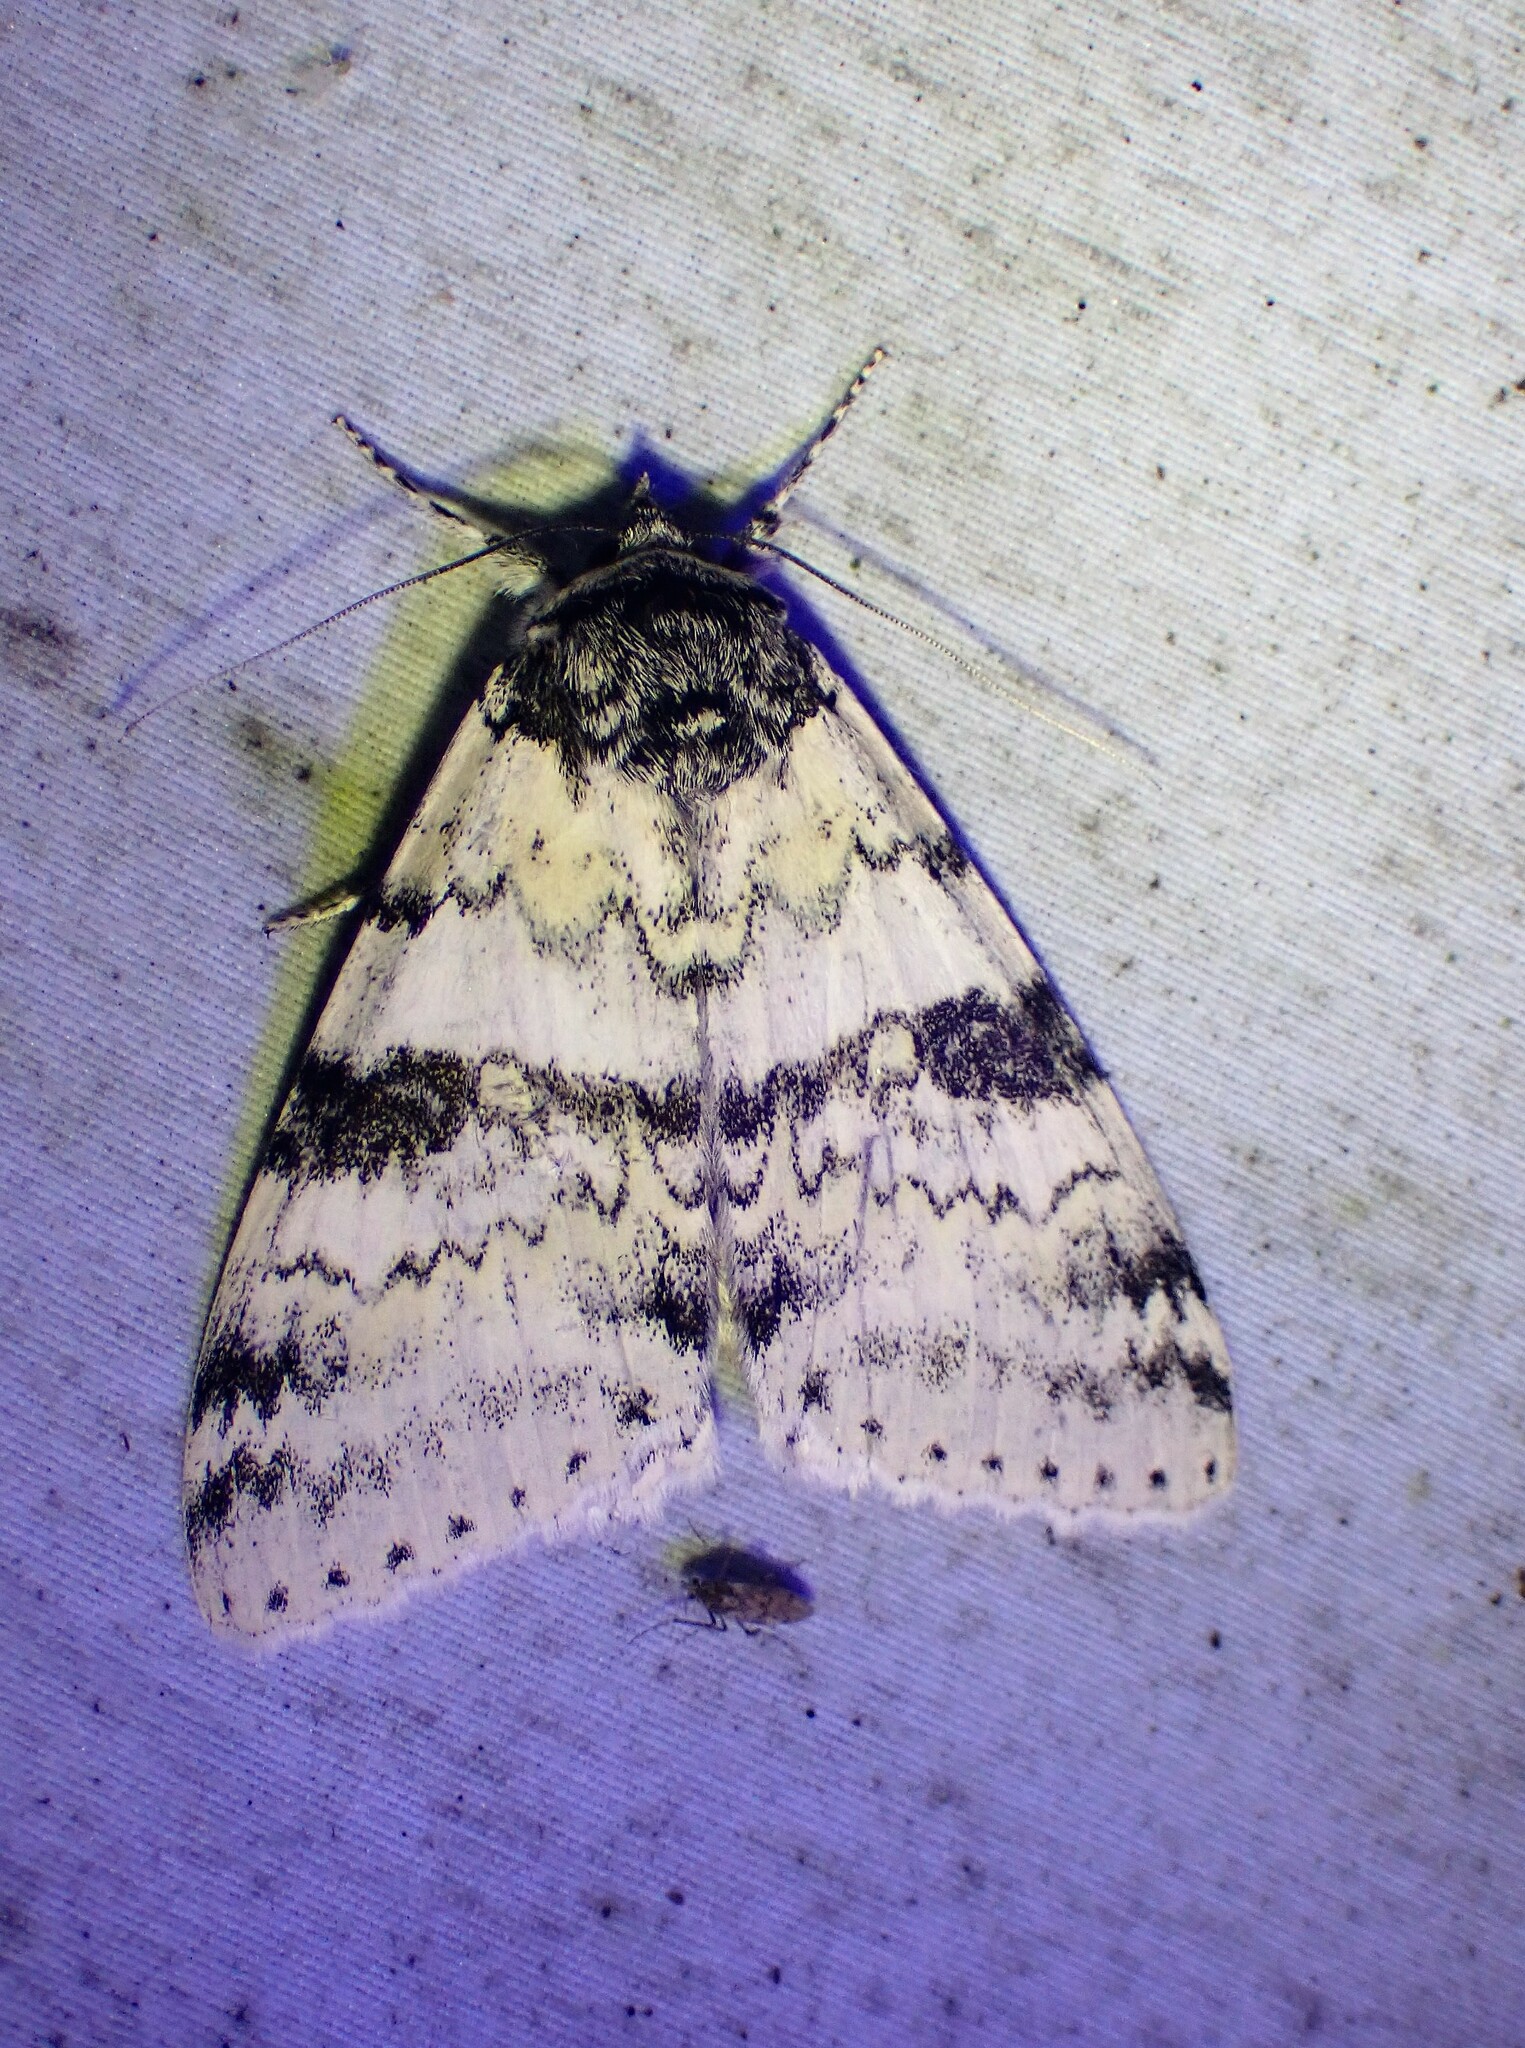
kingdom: Animalia
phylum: Arthropoda
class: Insecta
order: Lepidoptera
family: Erebidae
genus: Catocala
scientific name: Catocala relicta
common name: White underwing
